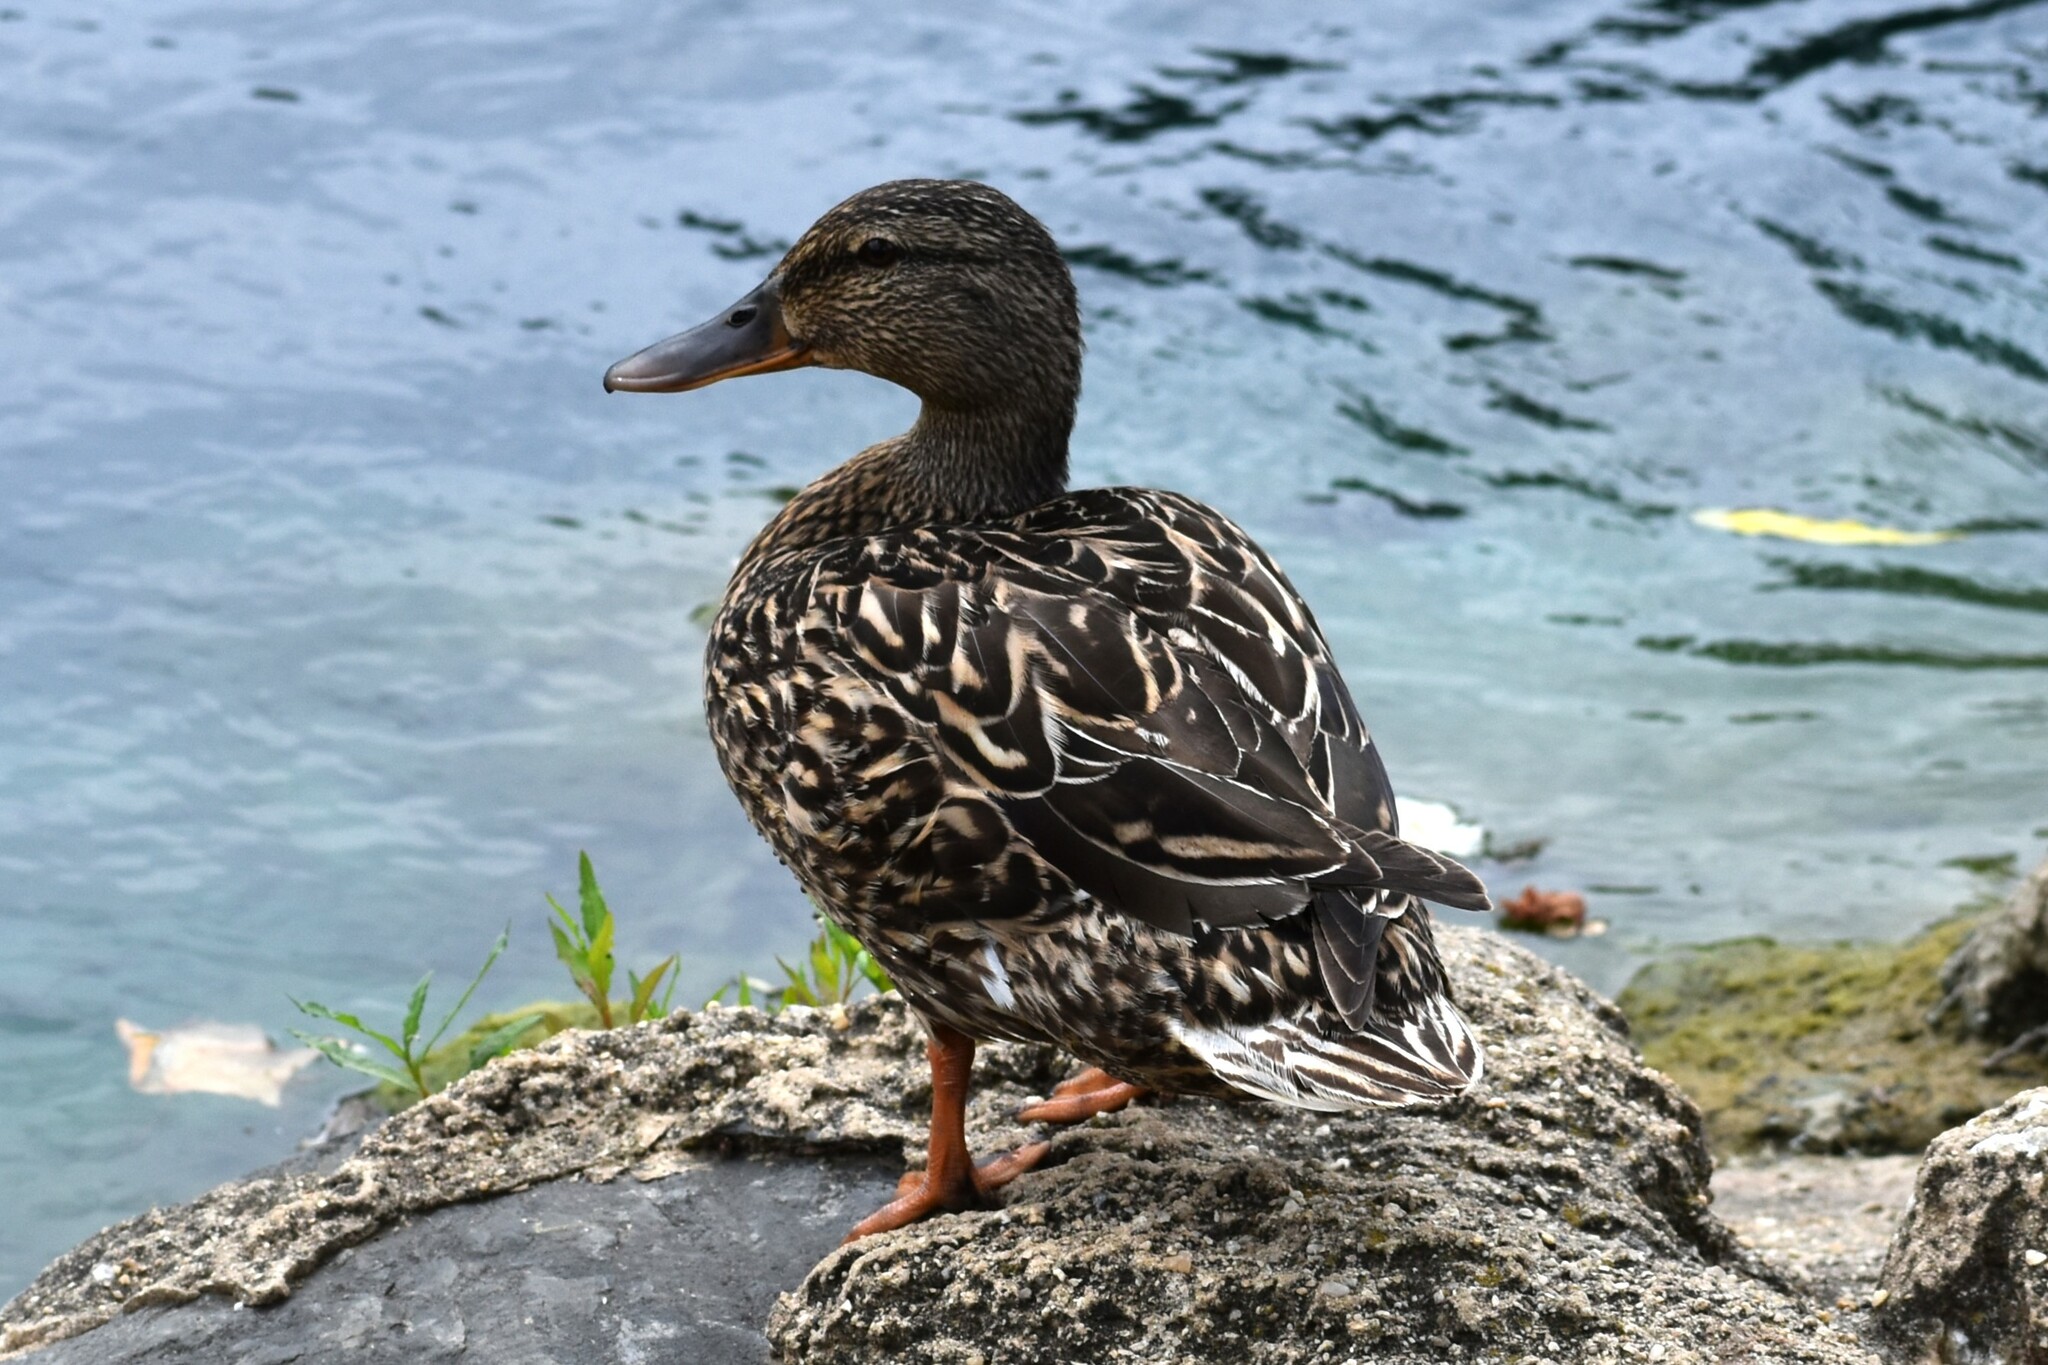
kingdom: Animalia
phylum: Chordata
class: Aves
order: Anseriformes
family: Anatidae
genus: Anas
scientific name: Anas platyrhynchos
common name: Mallard
